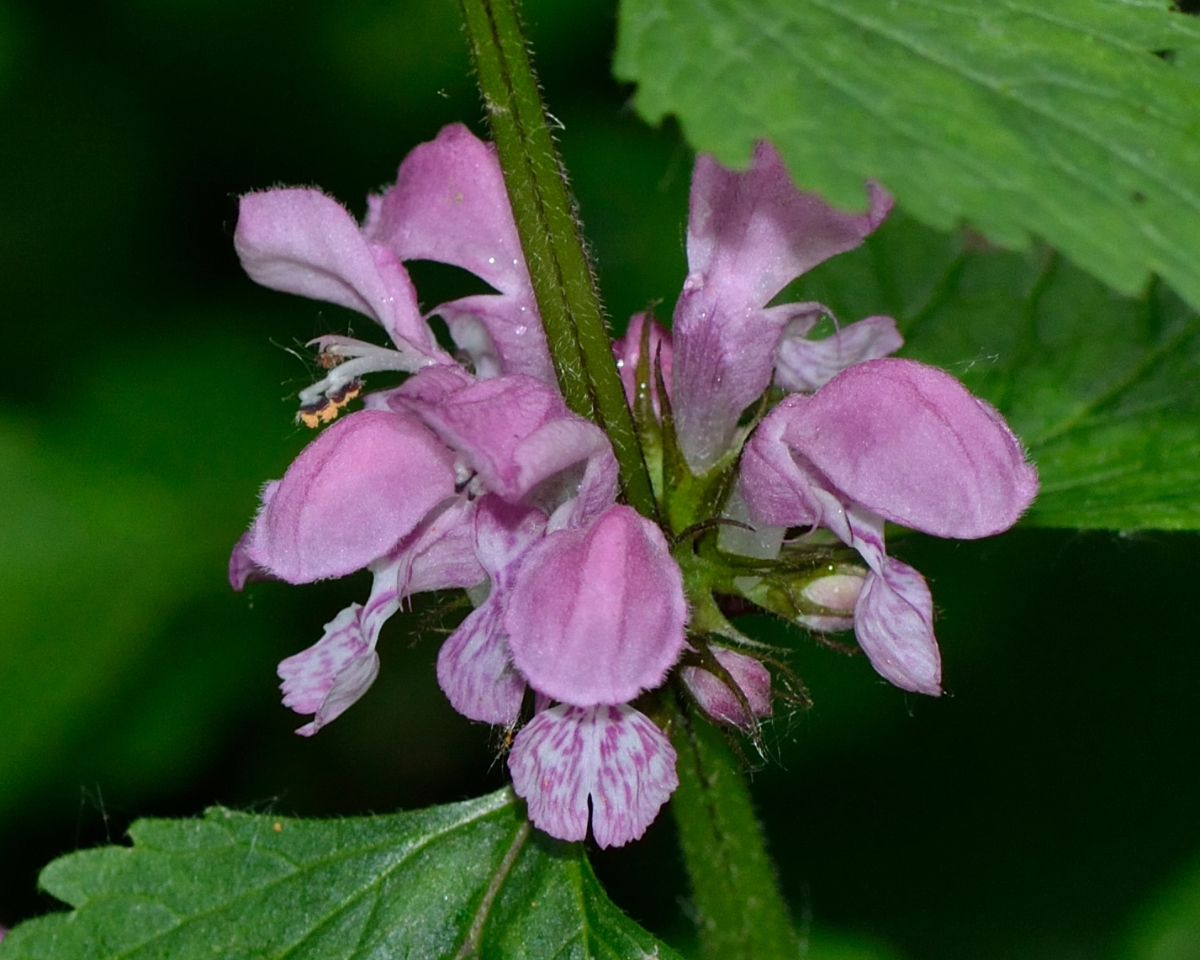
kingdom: Plantae
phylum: Tracheophyta
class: Magnoliopsida
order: Lamiales
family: Lamiaceae
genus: Lamium
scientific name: Lamium maculatum
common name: Spotted dead-nettle
